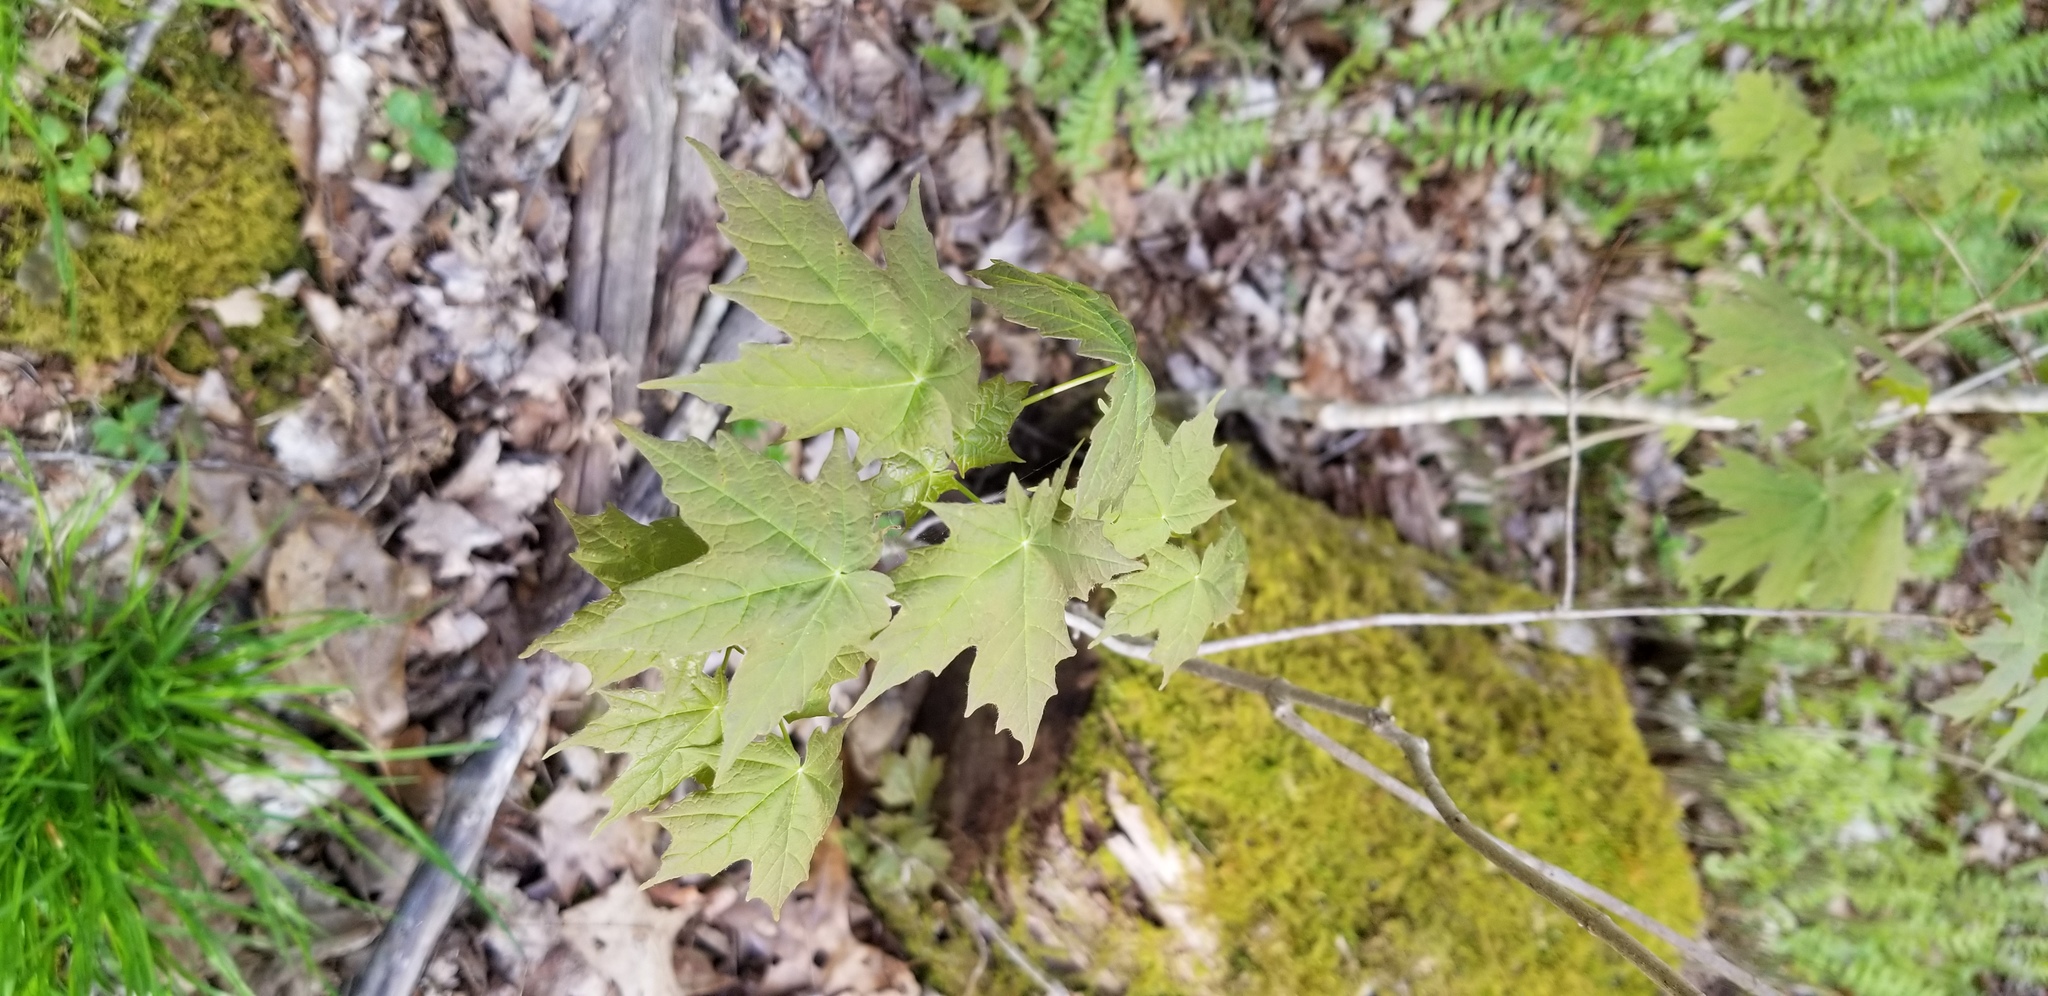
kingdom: Plantae
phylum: Tracheophyta
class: Magnoliopsida
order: Sapindales
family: Sapindaceae
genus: Acer
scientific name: Acer saccharum
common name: Sugar maple
